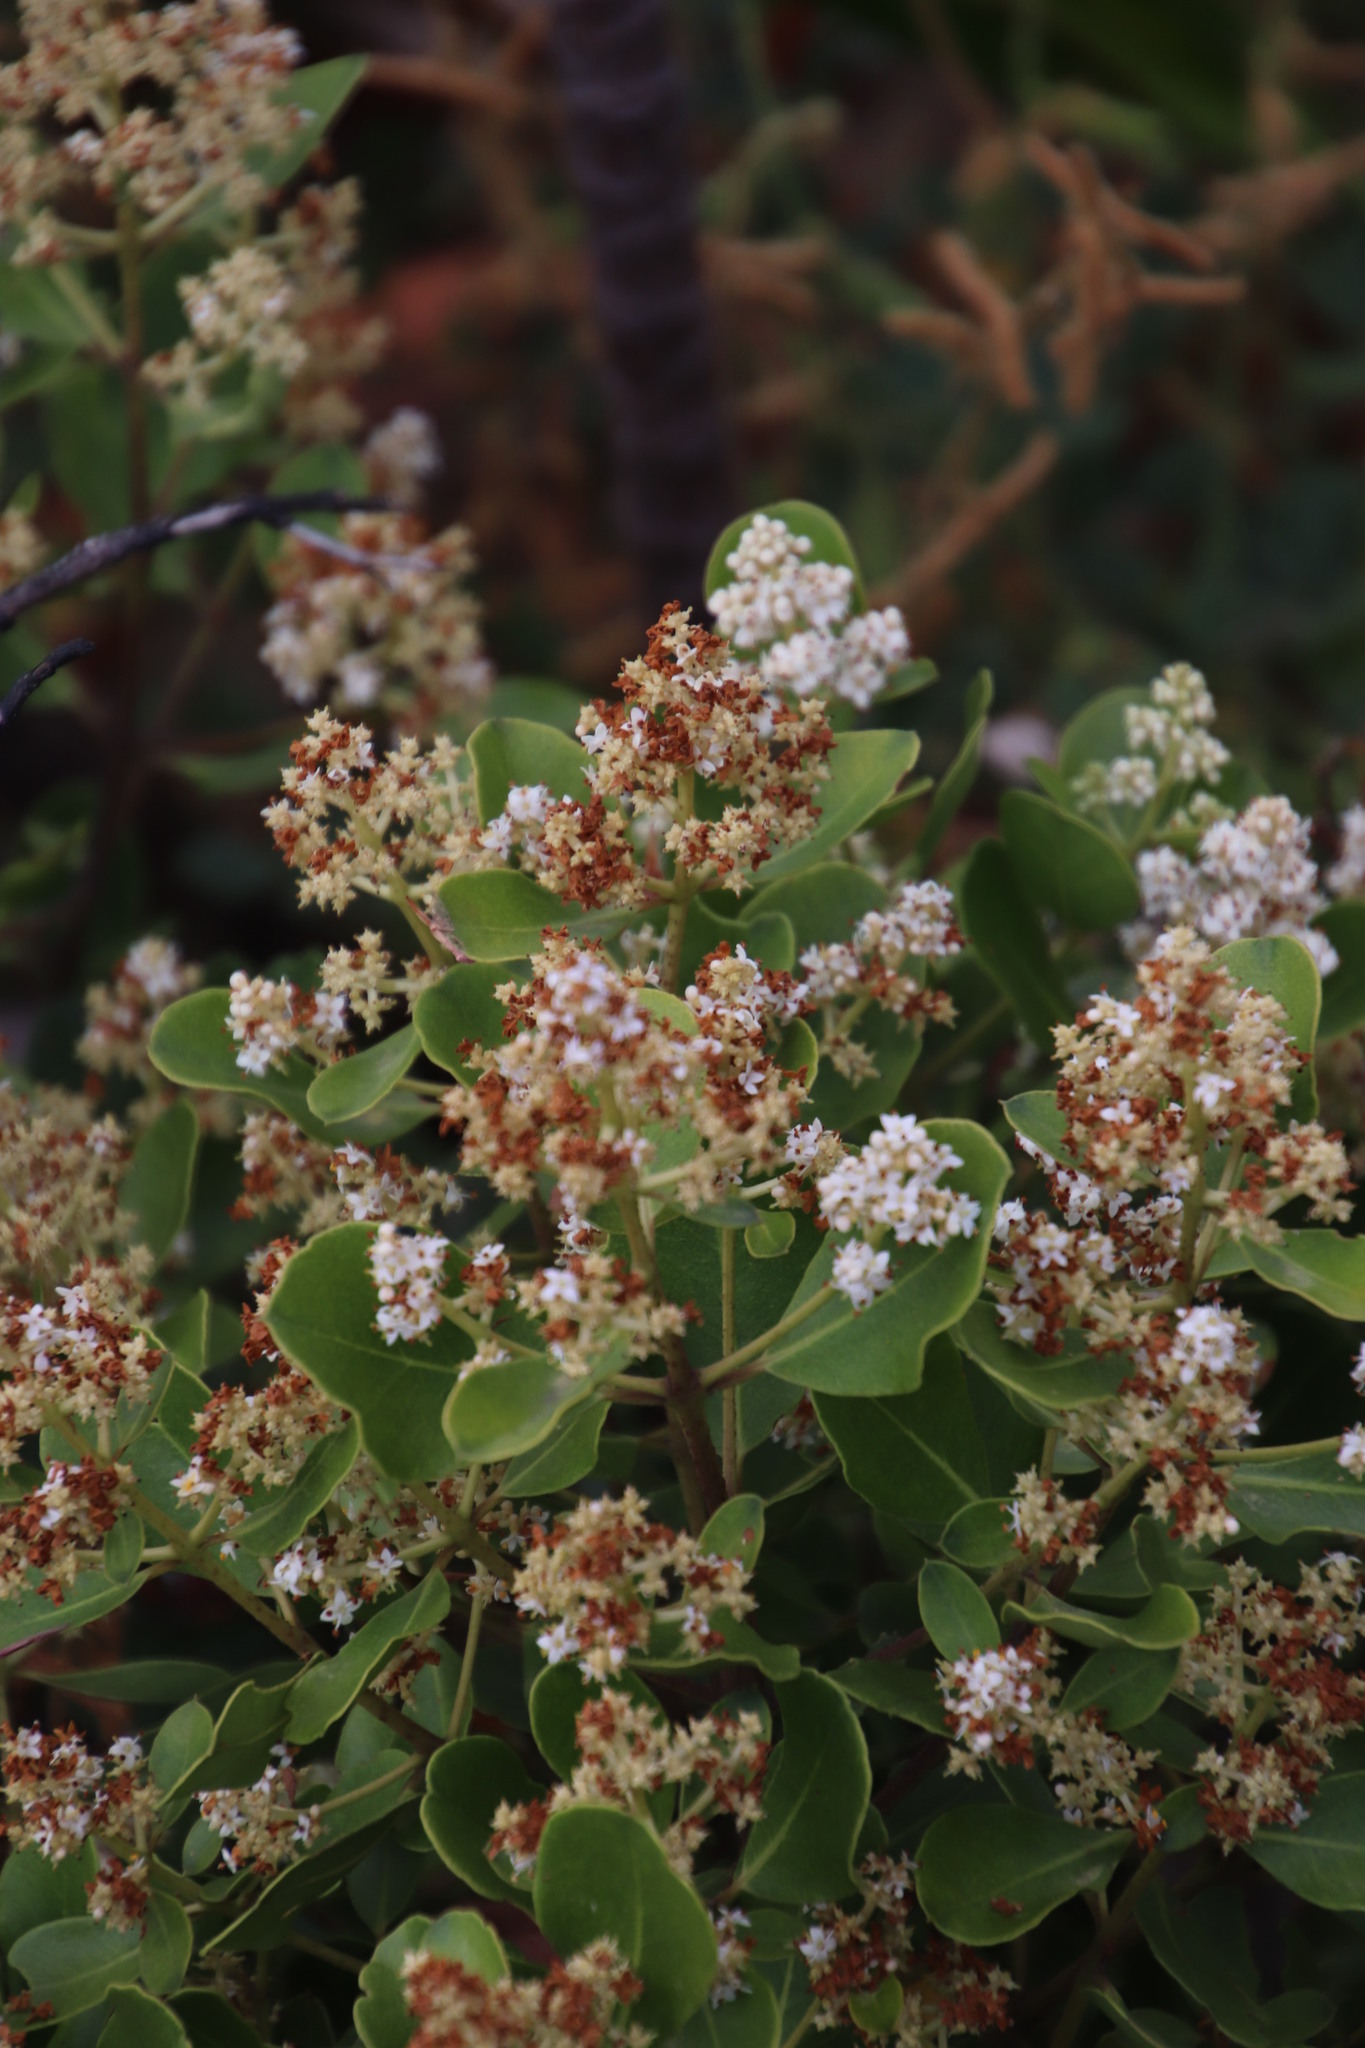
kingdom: Plantae
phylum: Tracheophyta
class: Magnoliopsida
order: Lamiales
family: Oleaceae
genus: Olea
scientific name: Olea capensis
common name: Black ironwood
